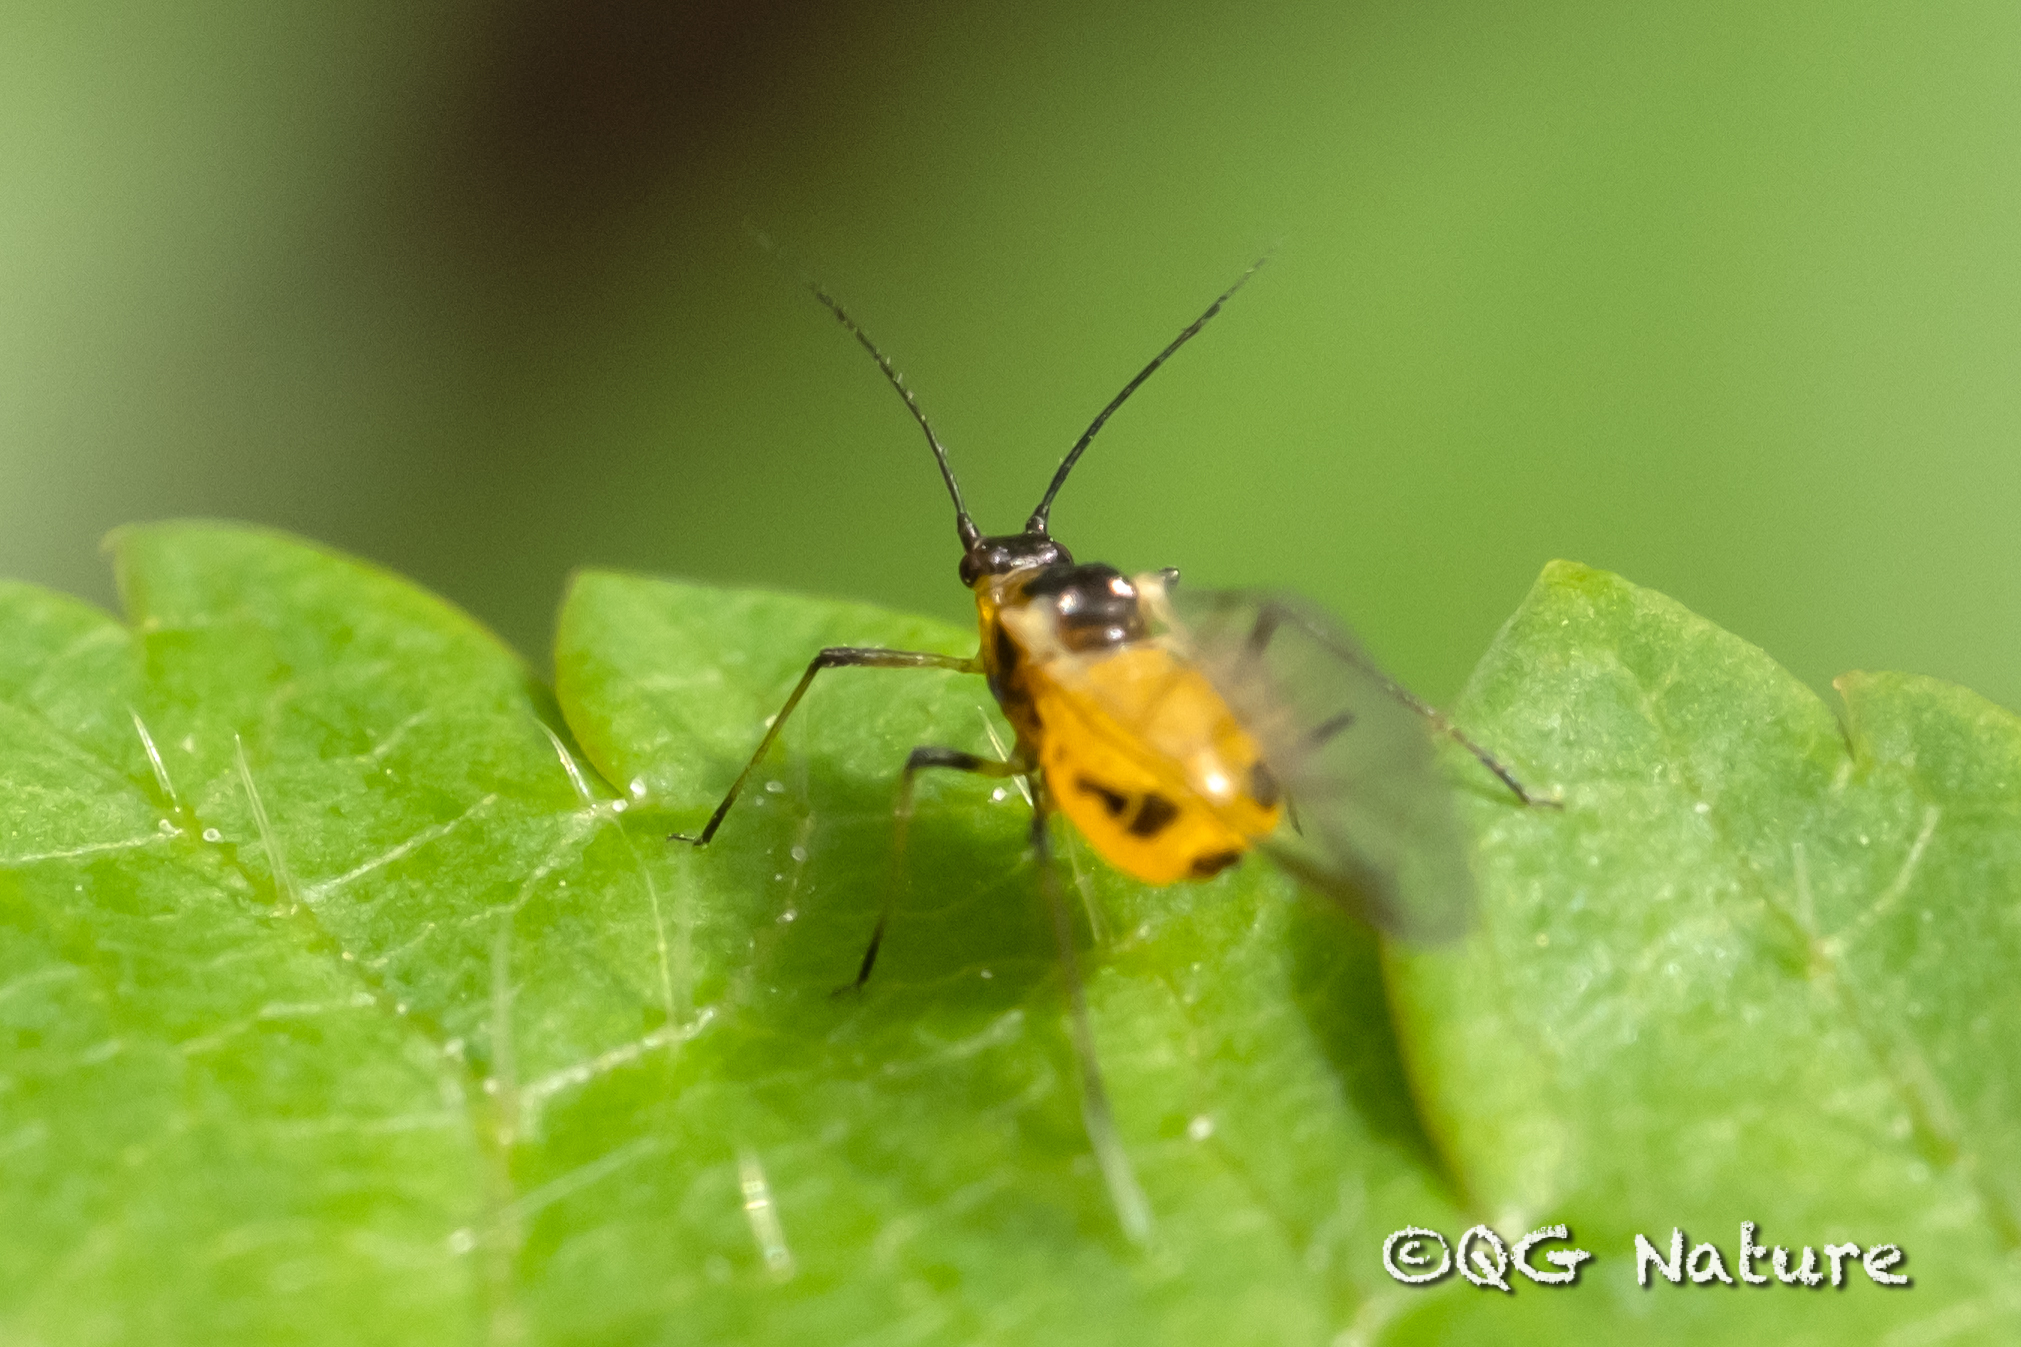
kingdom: Animalia
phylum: Arthropoda
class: Insecta
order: Hemiptera
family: Aphididae
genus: Aphis
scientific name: Aphis nerii
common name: Oleander aphid
